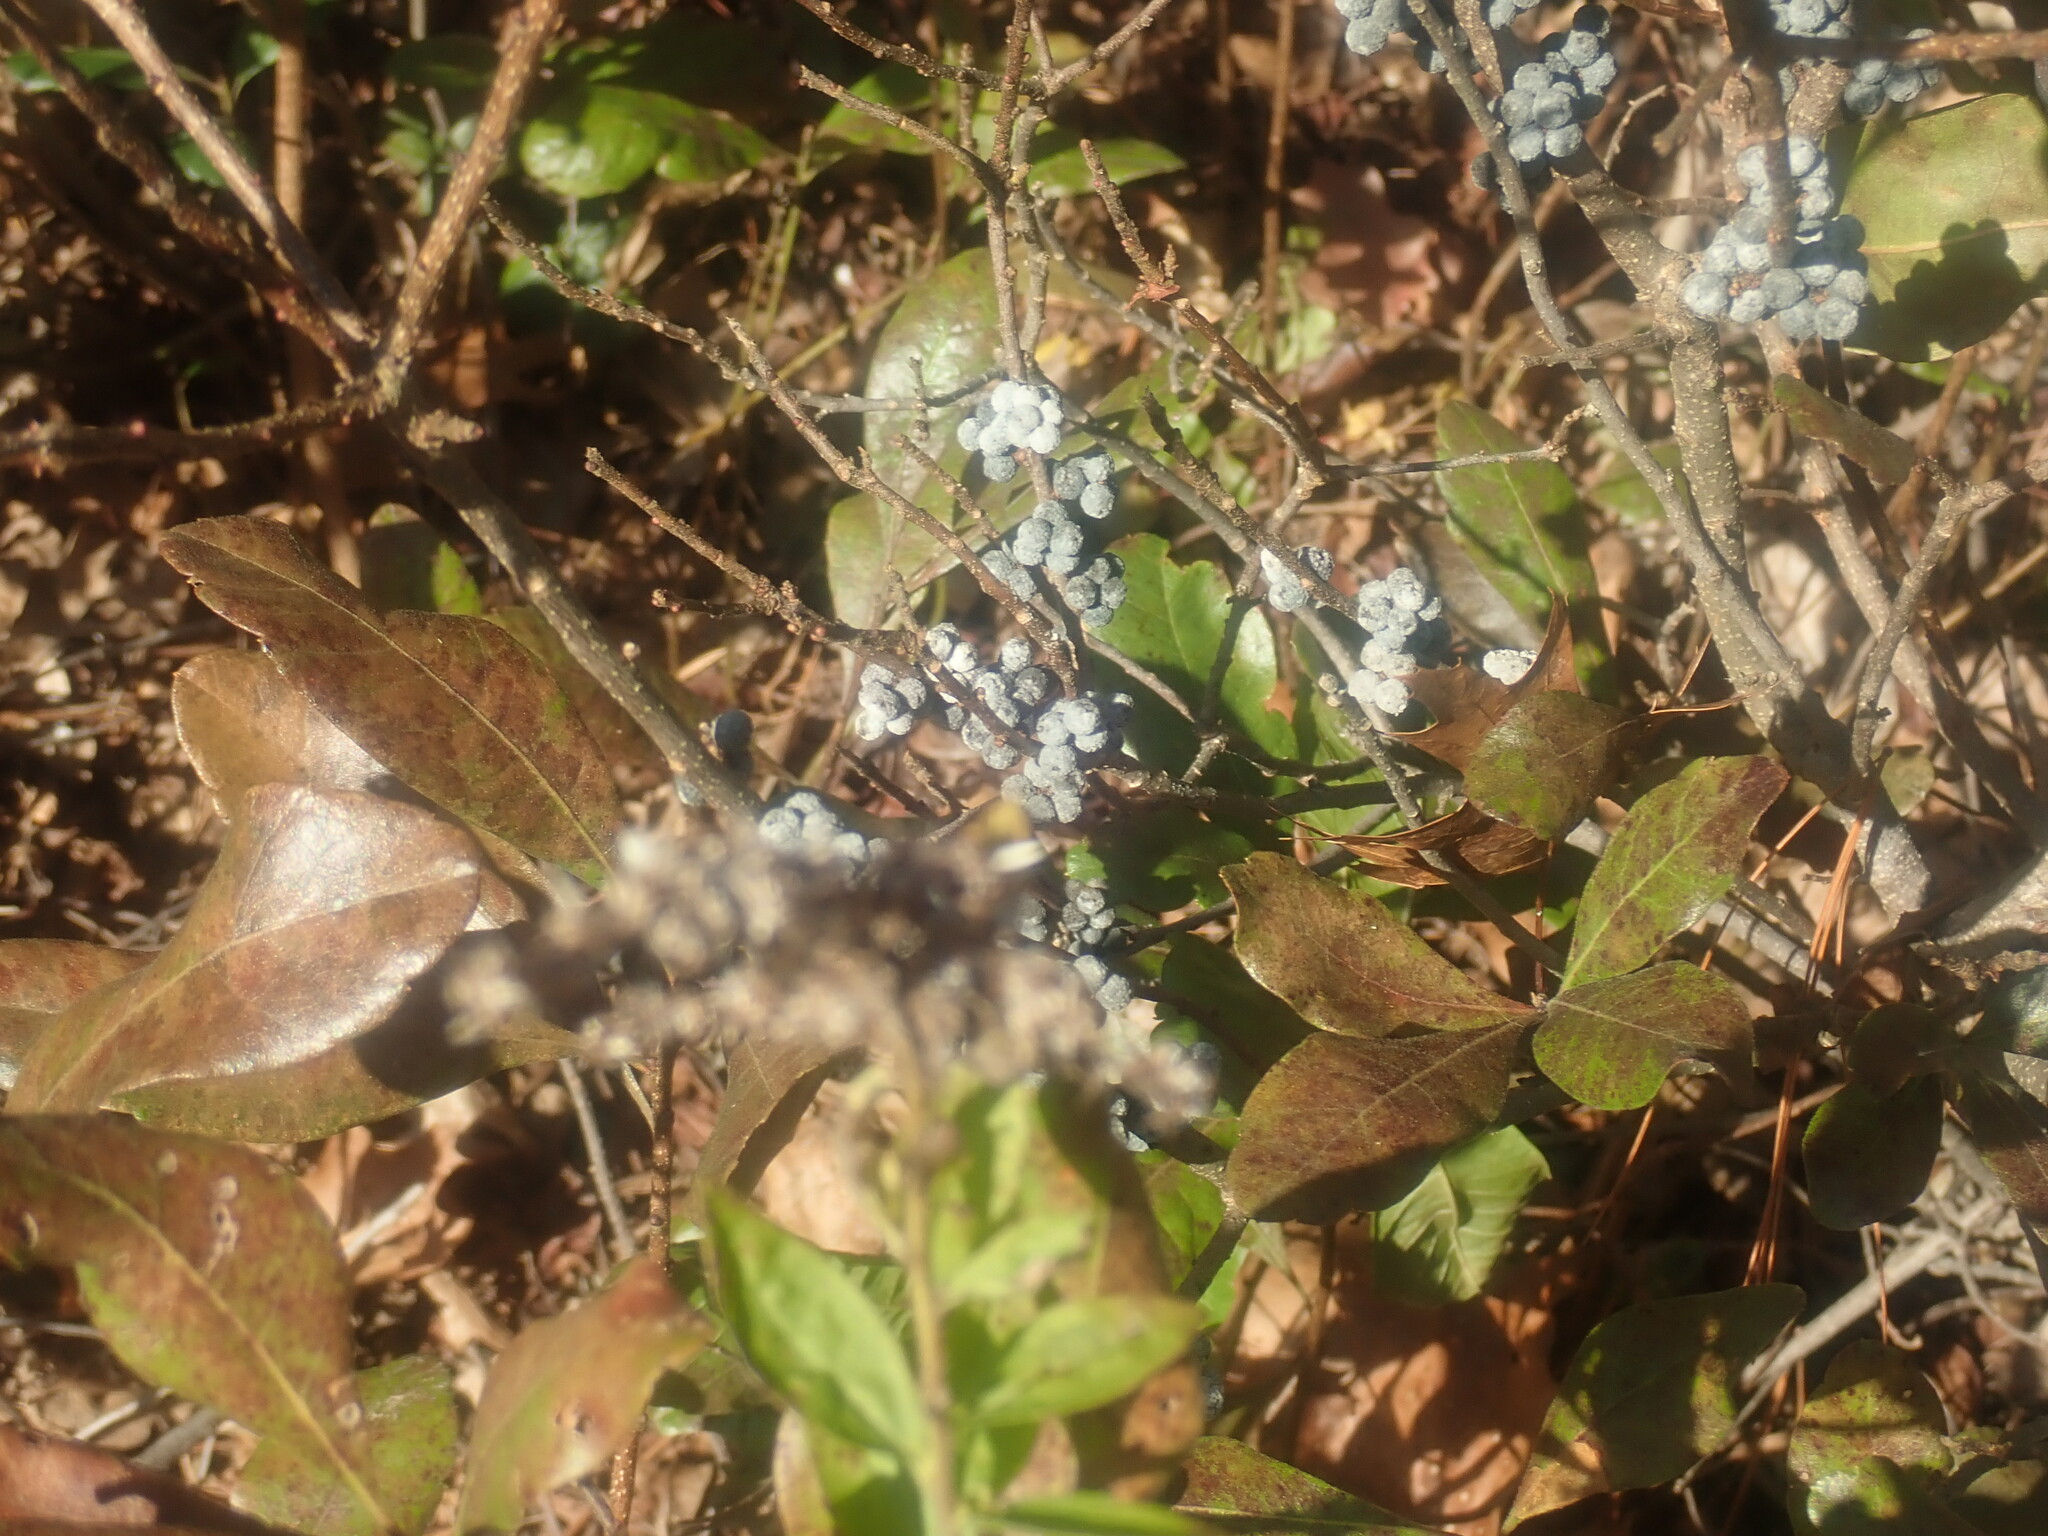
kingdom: Plantae
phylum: Tracheophyta
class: Magnoliopsida
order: Fagales
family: Myricaceae
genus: Morella
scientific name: Morella pensylvanica
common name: Northern bayberry
